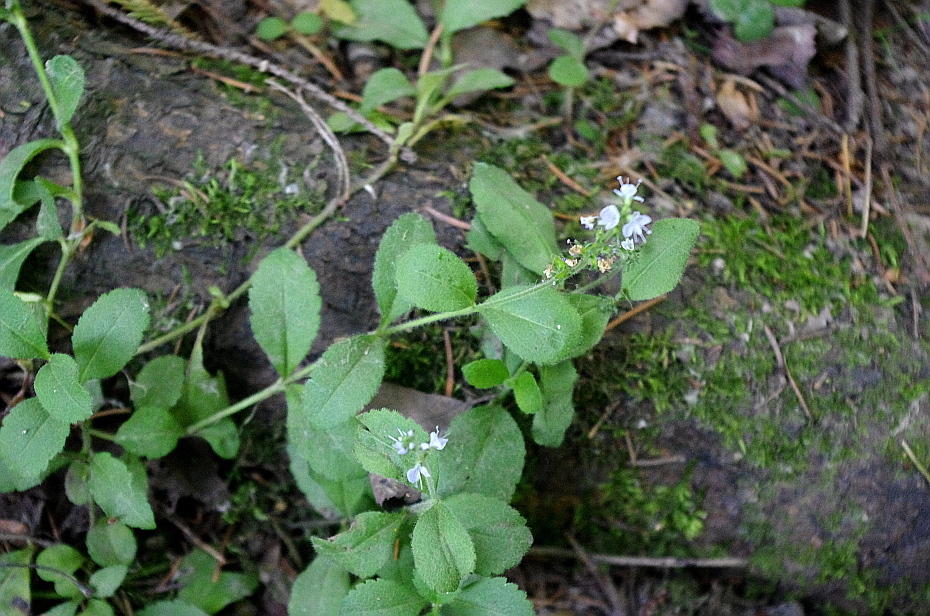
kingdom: Plantae
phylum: Tracheophyta
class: Magnoliopsida
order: Lamiales
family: Plantaginaceae
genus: Veronica
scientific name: Veronica officinalis
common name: Common speedwell
